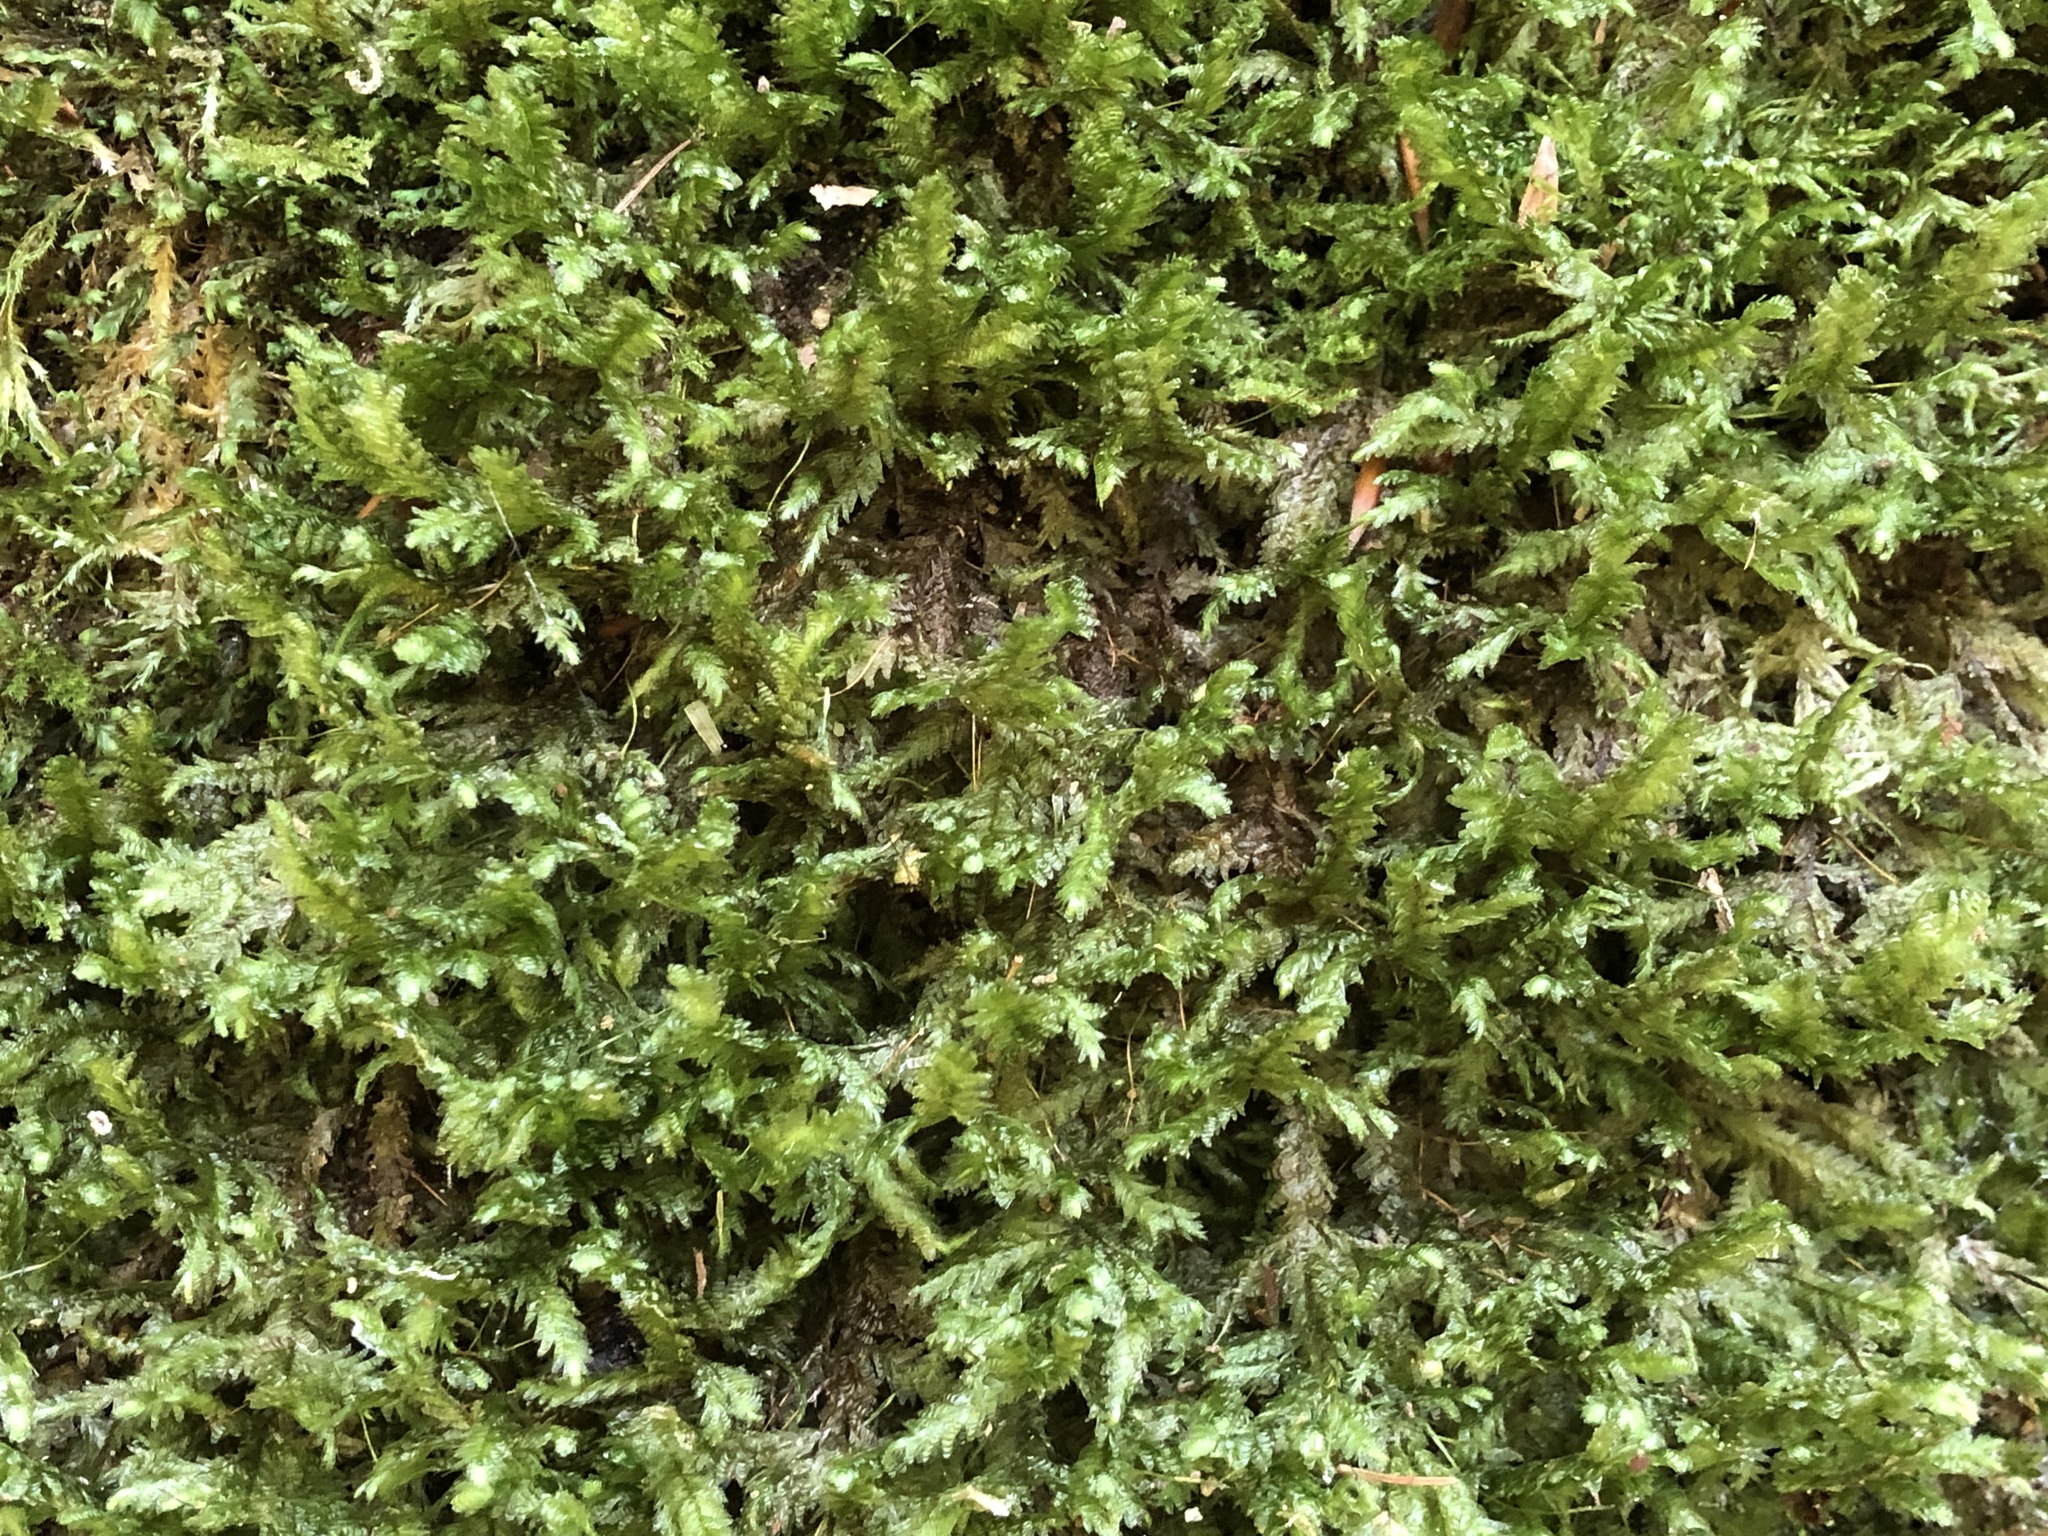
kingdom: Plantae
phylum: Bryophyta
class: Bryopsida
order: Hypnales
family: Neckeraceae
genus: Exsertotheca
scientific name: Exsertotheca crispa
